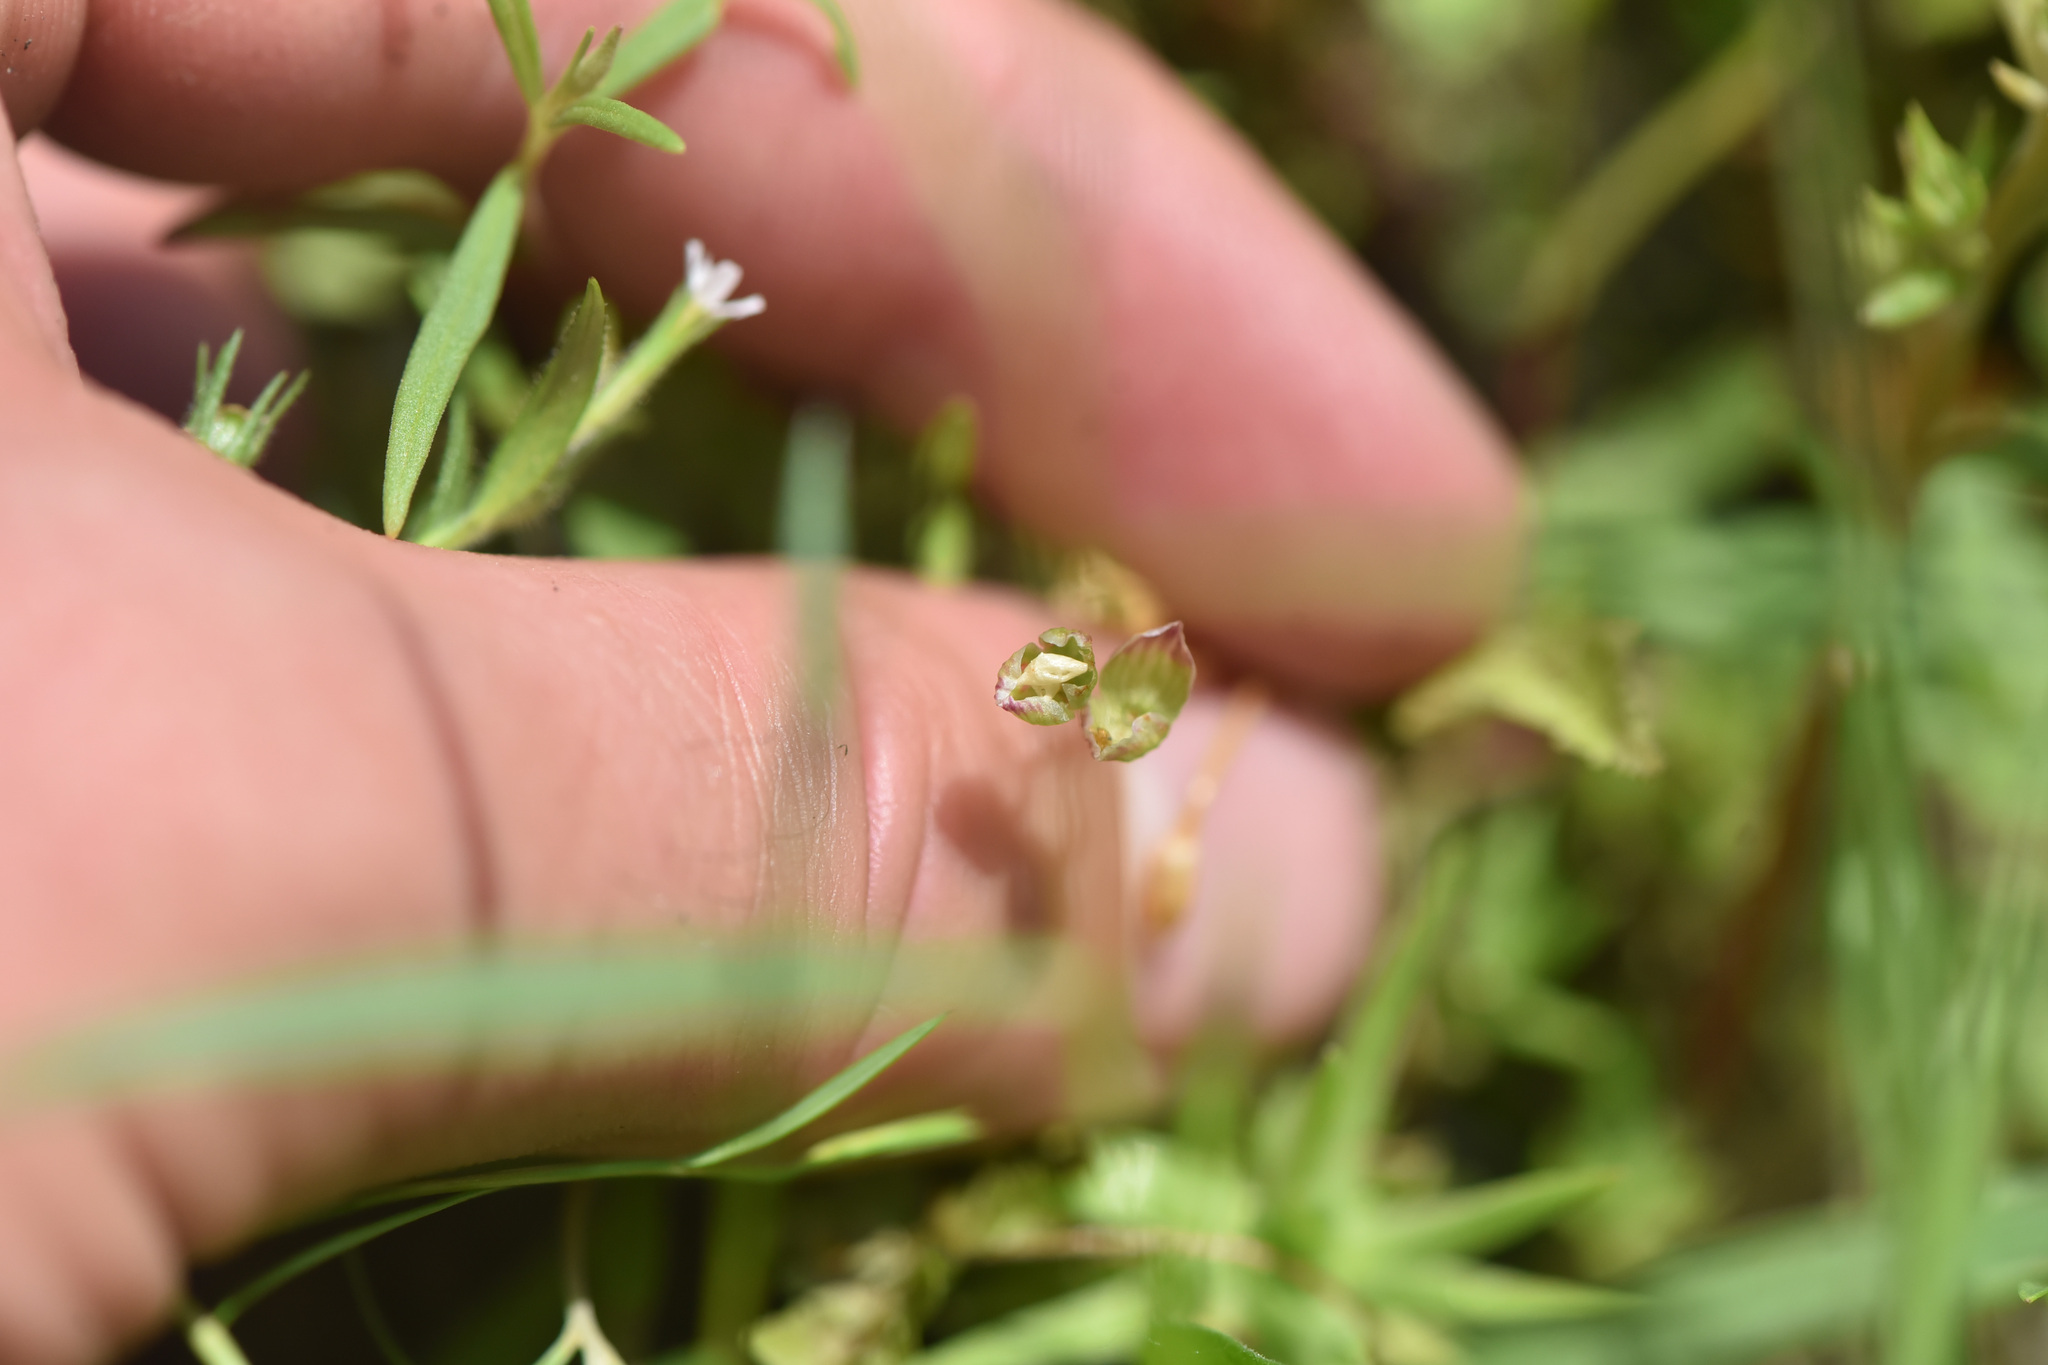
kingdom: Plantae
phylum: Tracheophyta
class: Magnoliopsida
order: Caryophyllales
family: Montiaceae
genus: Montia
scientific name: Montia linearis
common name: Narrow-leaf montia
